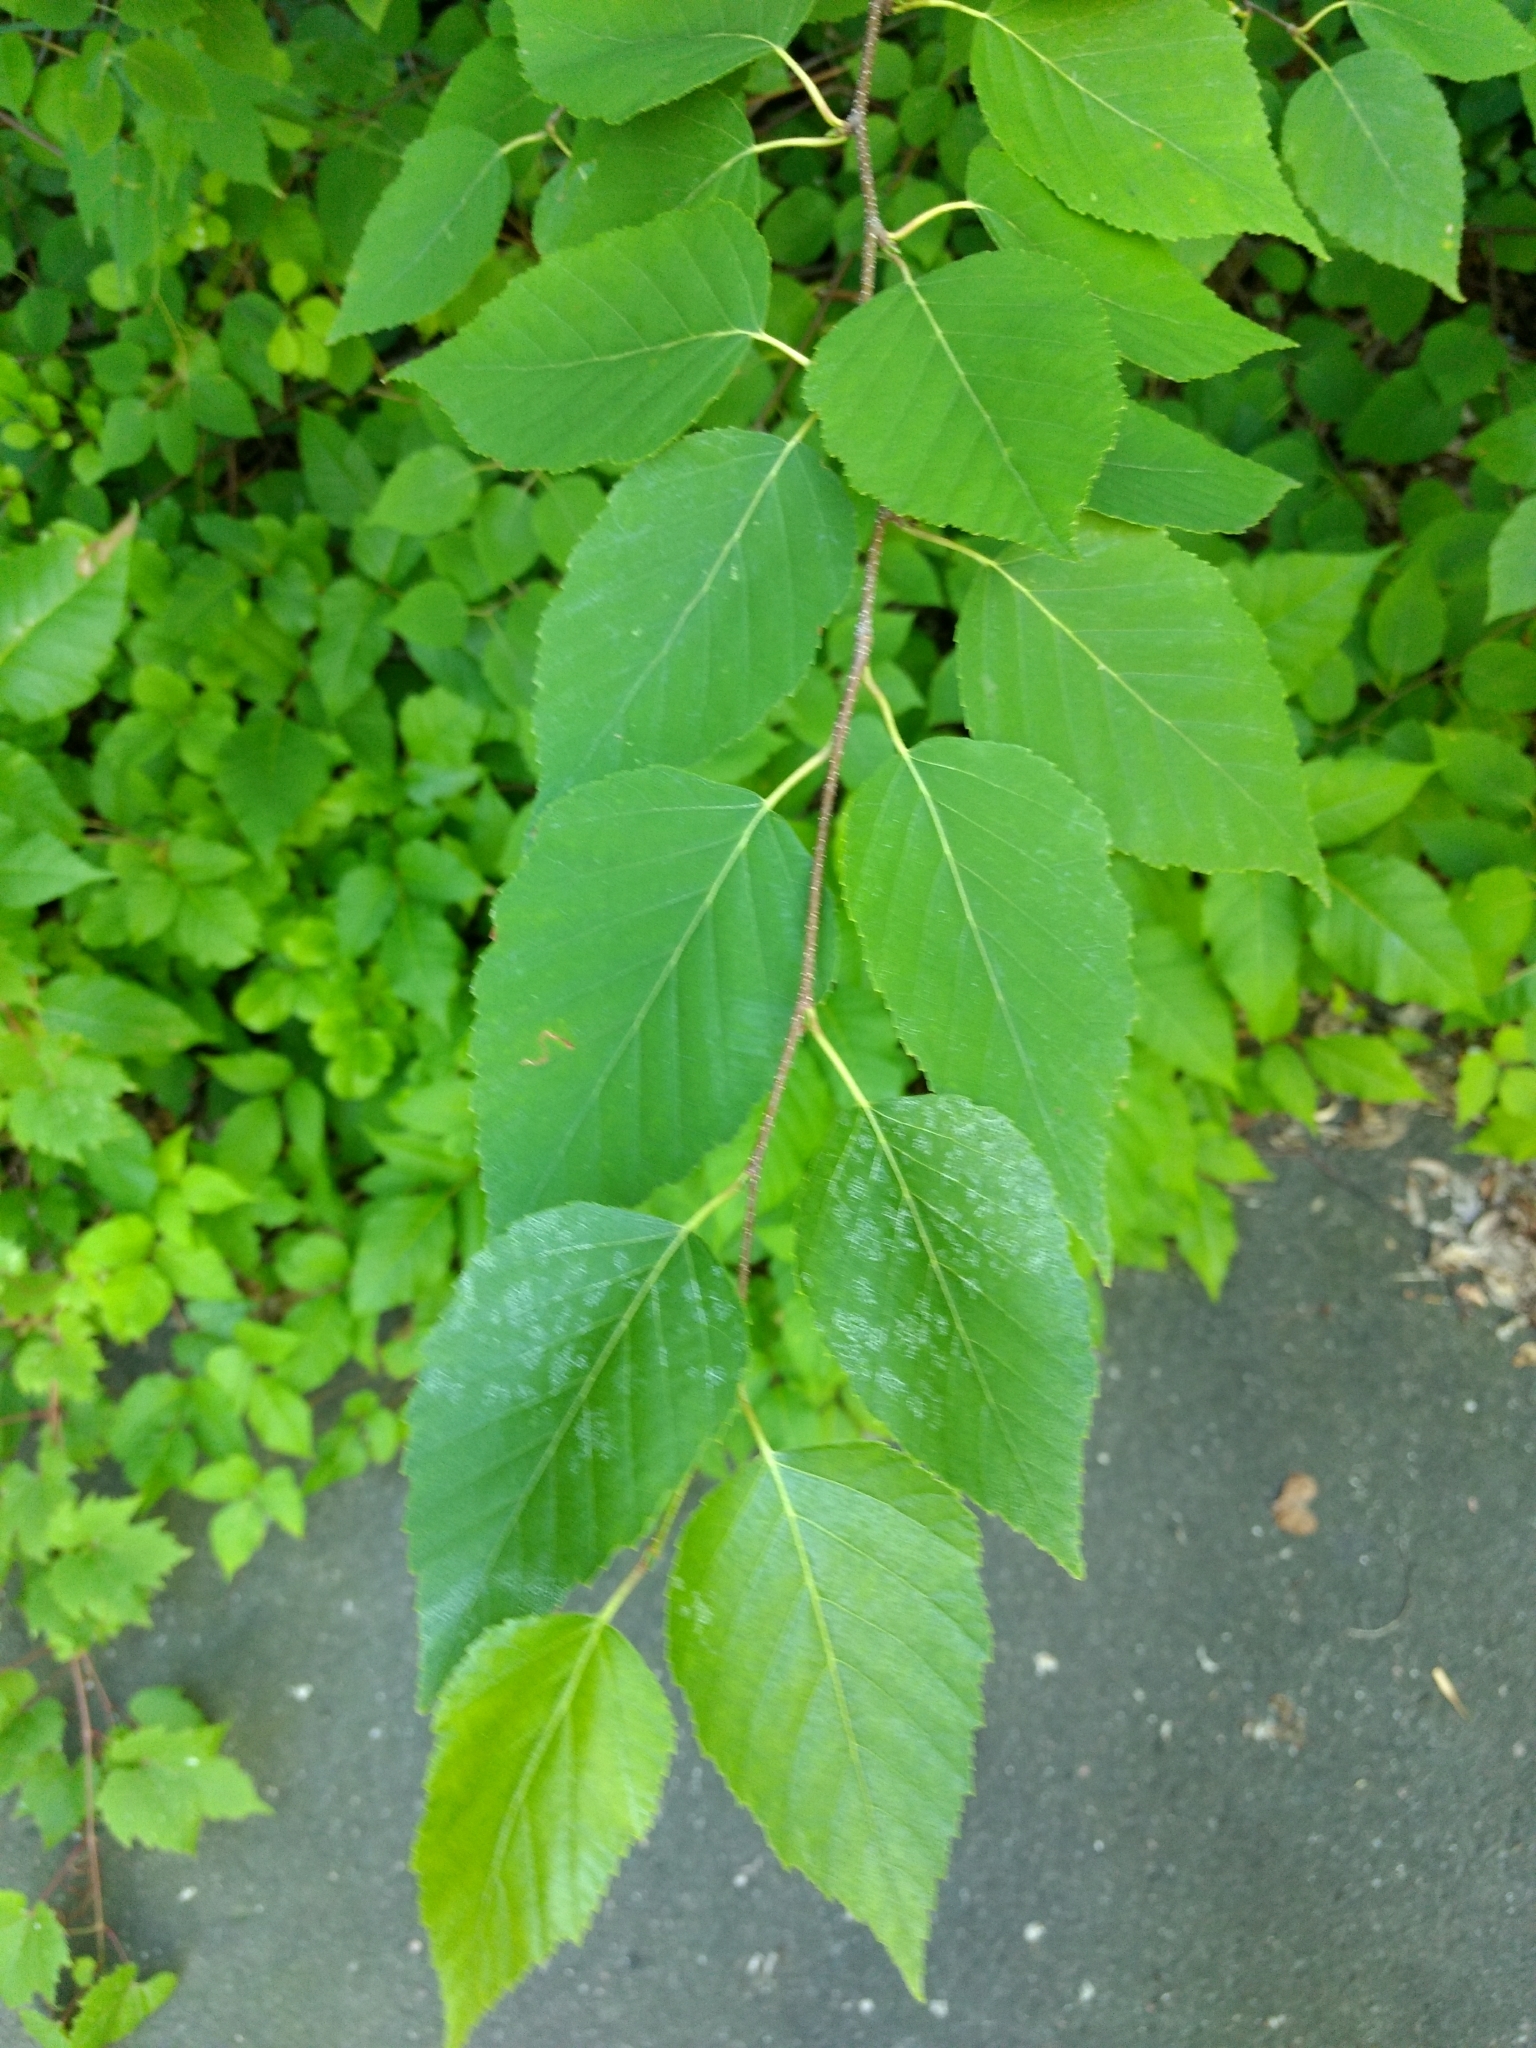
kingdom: Plantae
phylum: Tracheophyta
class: Magnoliopsida
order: Fagales
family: Betulaceae
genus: Betula
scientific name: Betula papyrifera
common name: Paper birch
